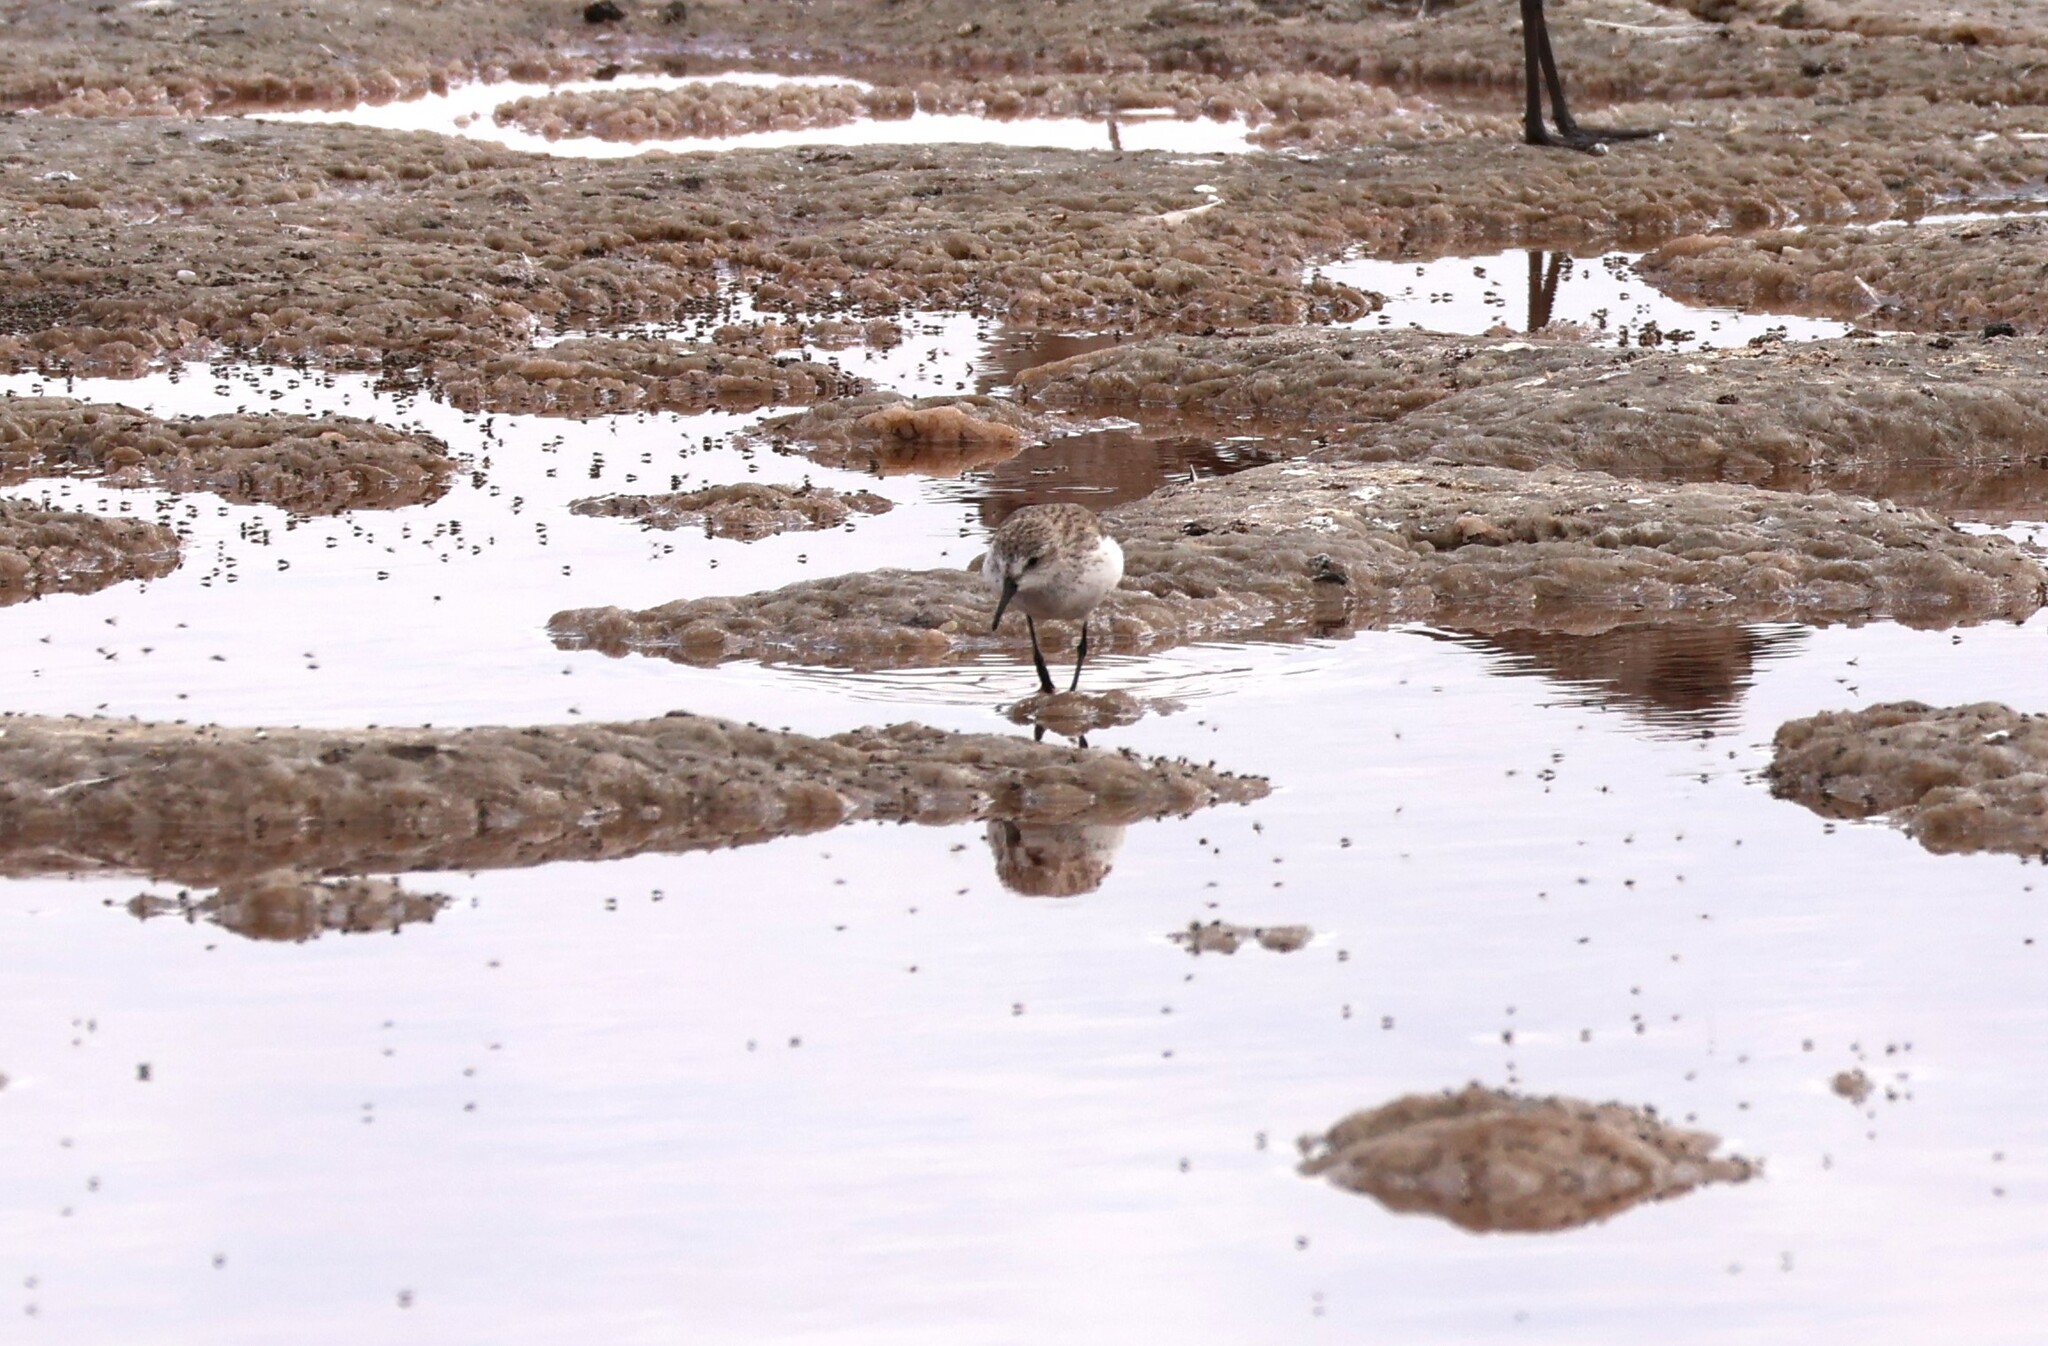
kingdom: Animalia
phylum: Chordata
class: Aves
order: Charadriiformes
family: Scolopacidae
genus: Calidris
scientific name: Calidris mauri
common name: Western sandpiper
